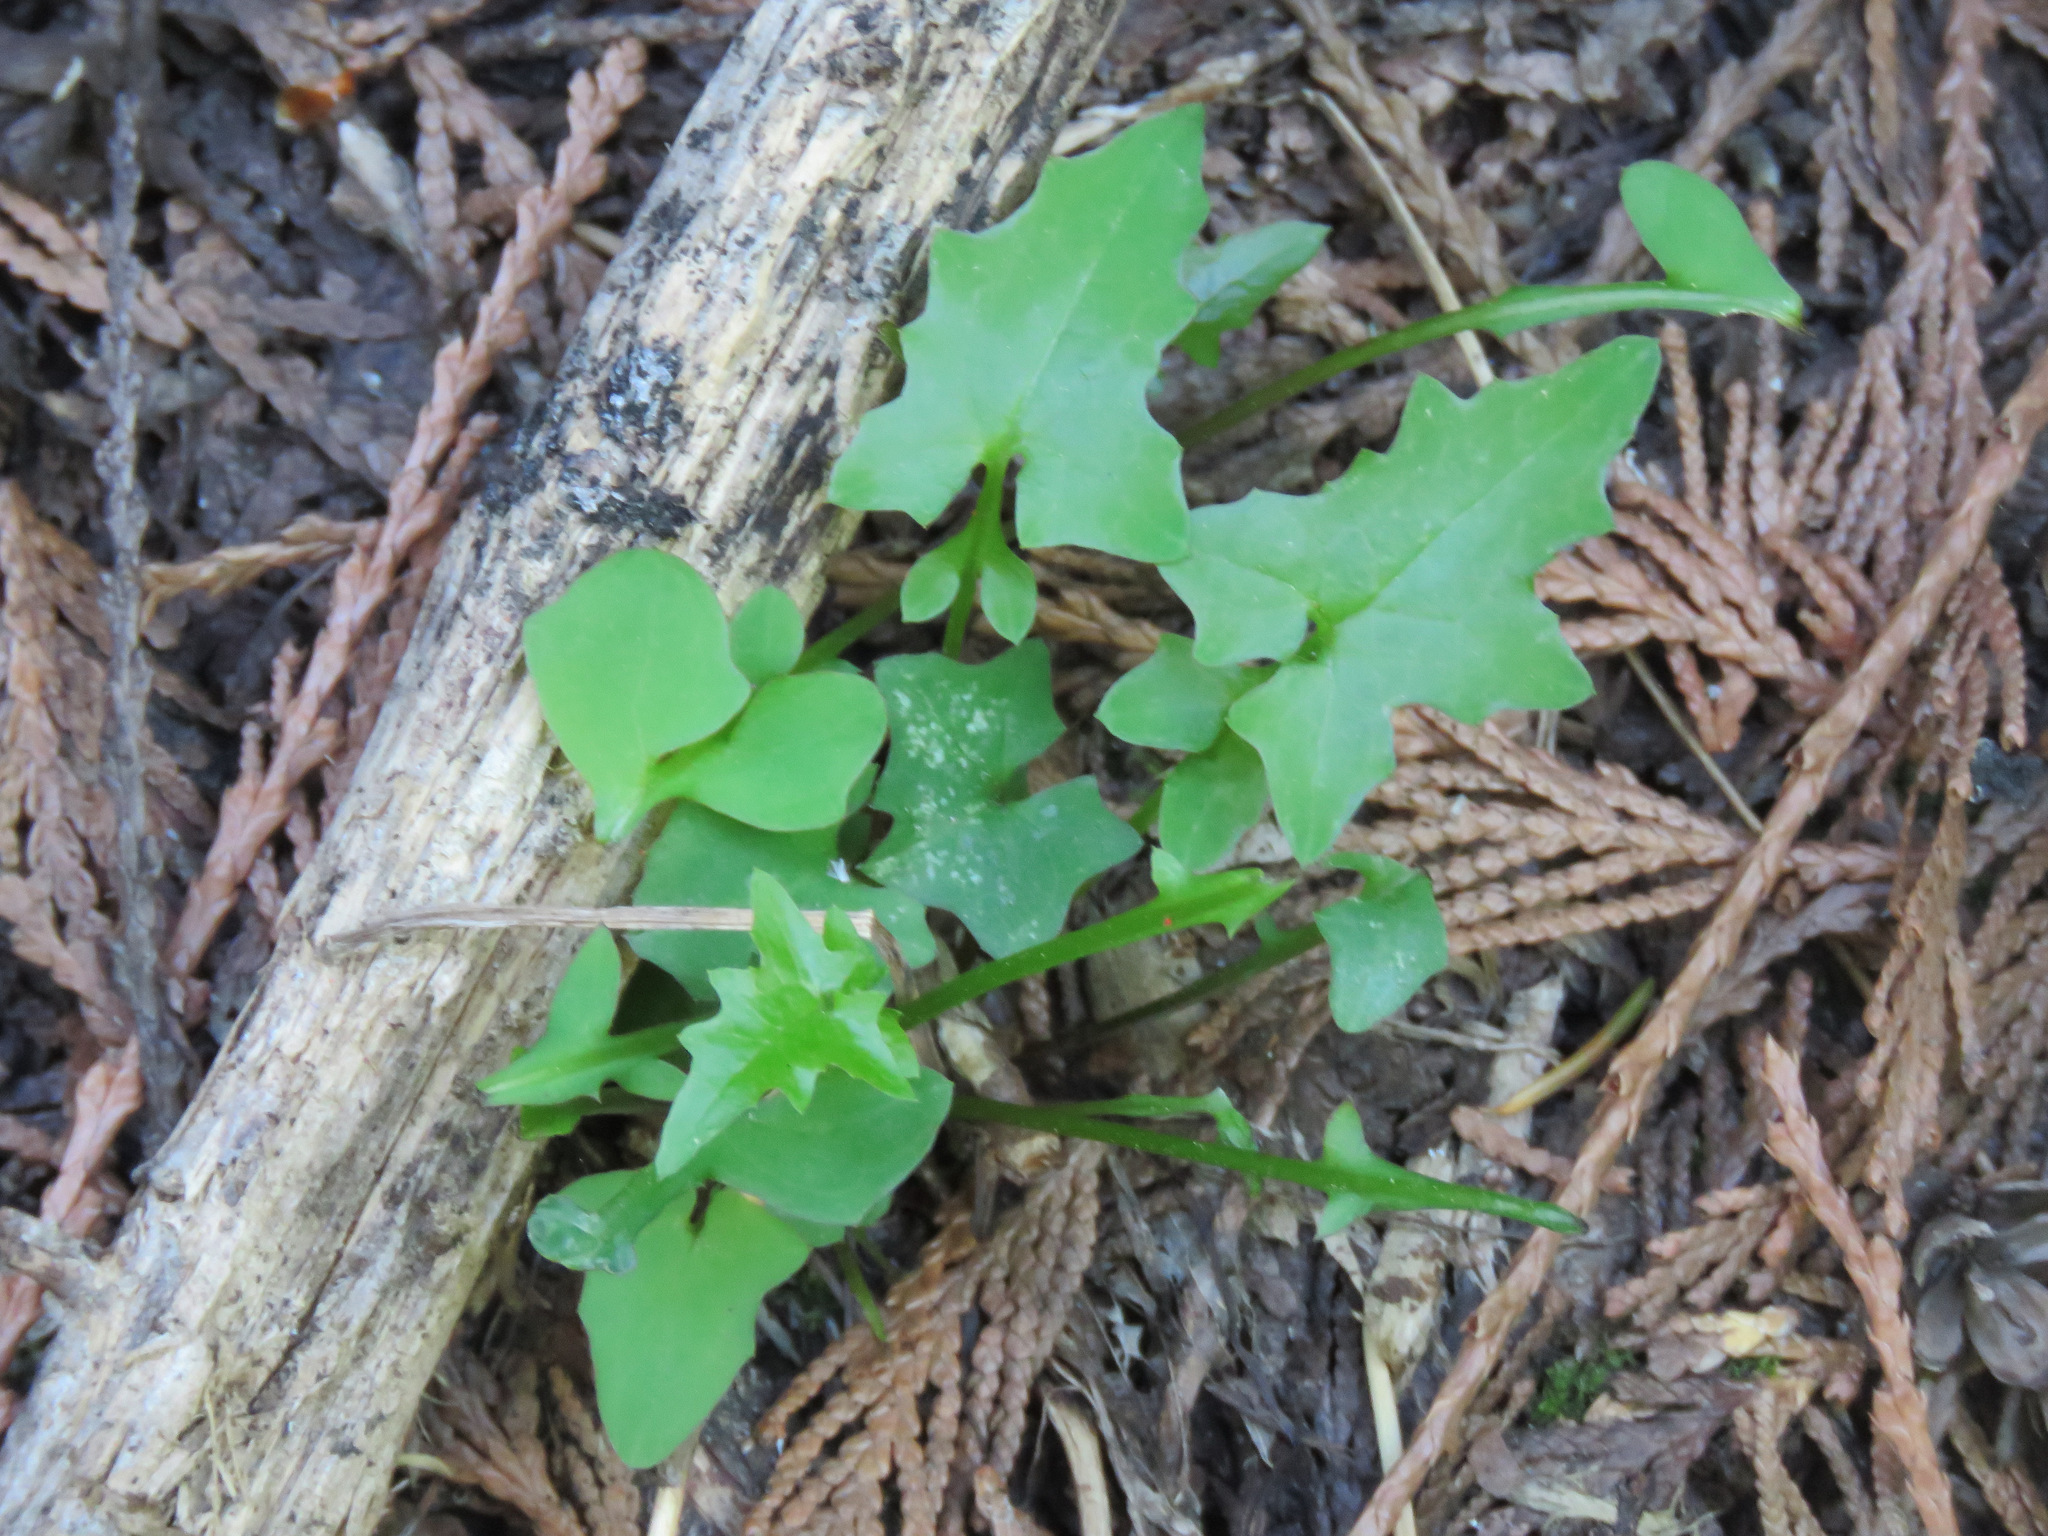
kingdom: Plantae
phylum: Tracheophyta
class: Magnoliopsida
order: Asterales
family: Asteraceae
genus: Mycelis
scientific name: Mycelis muralis
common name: Wall lettuce
